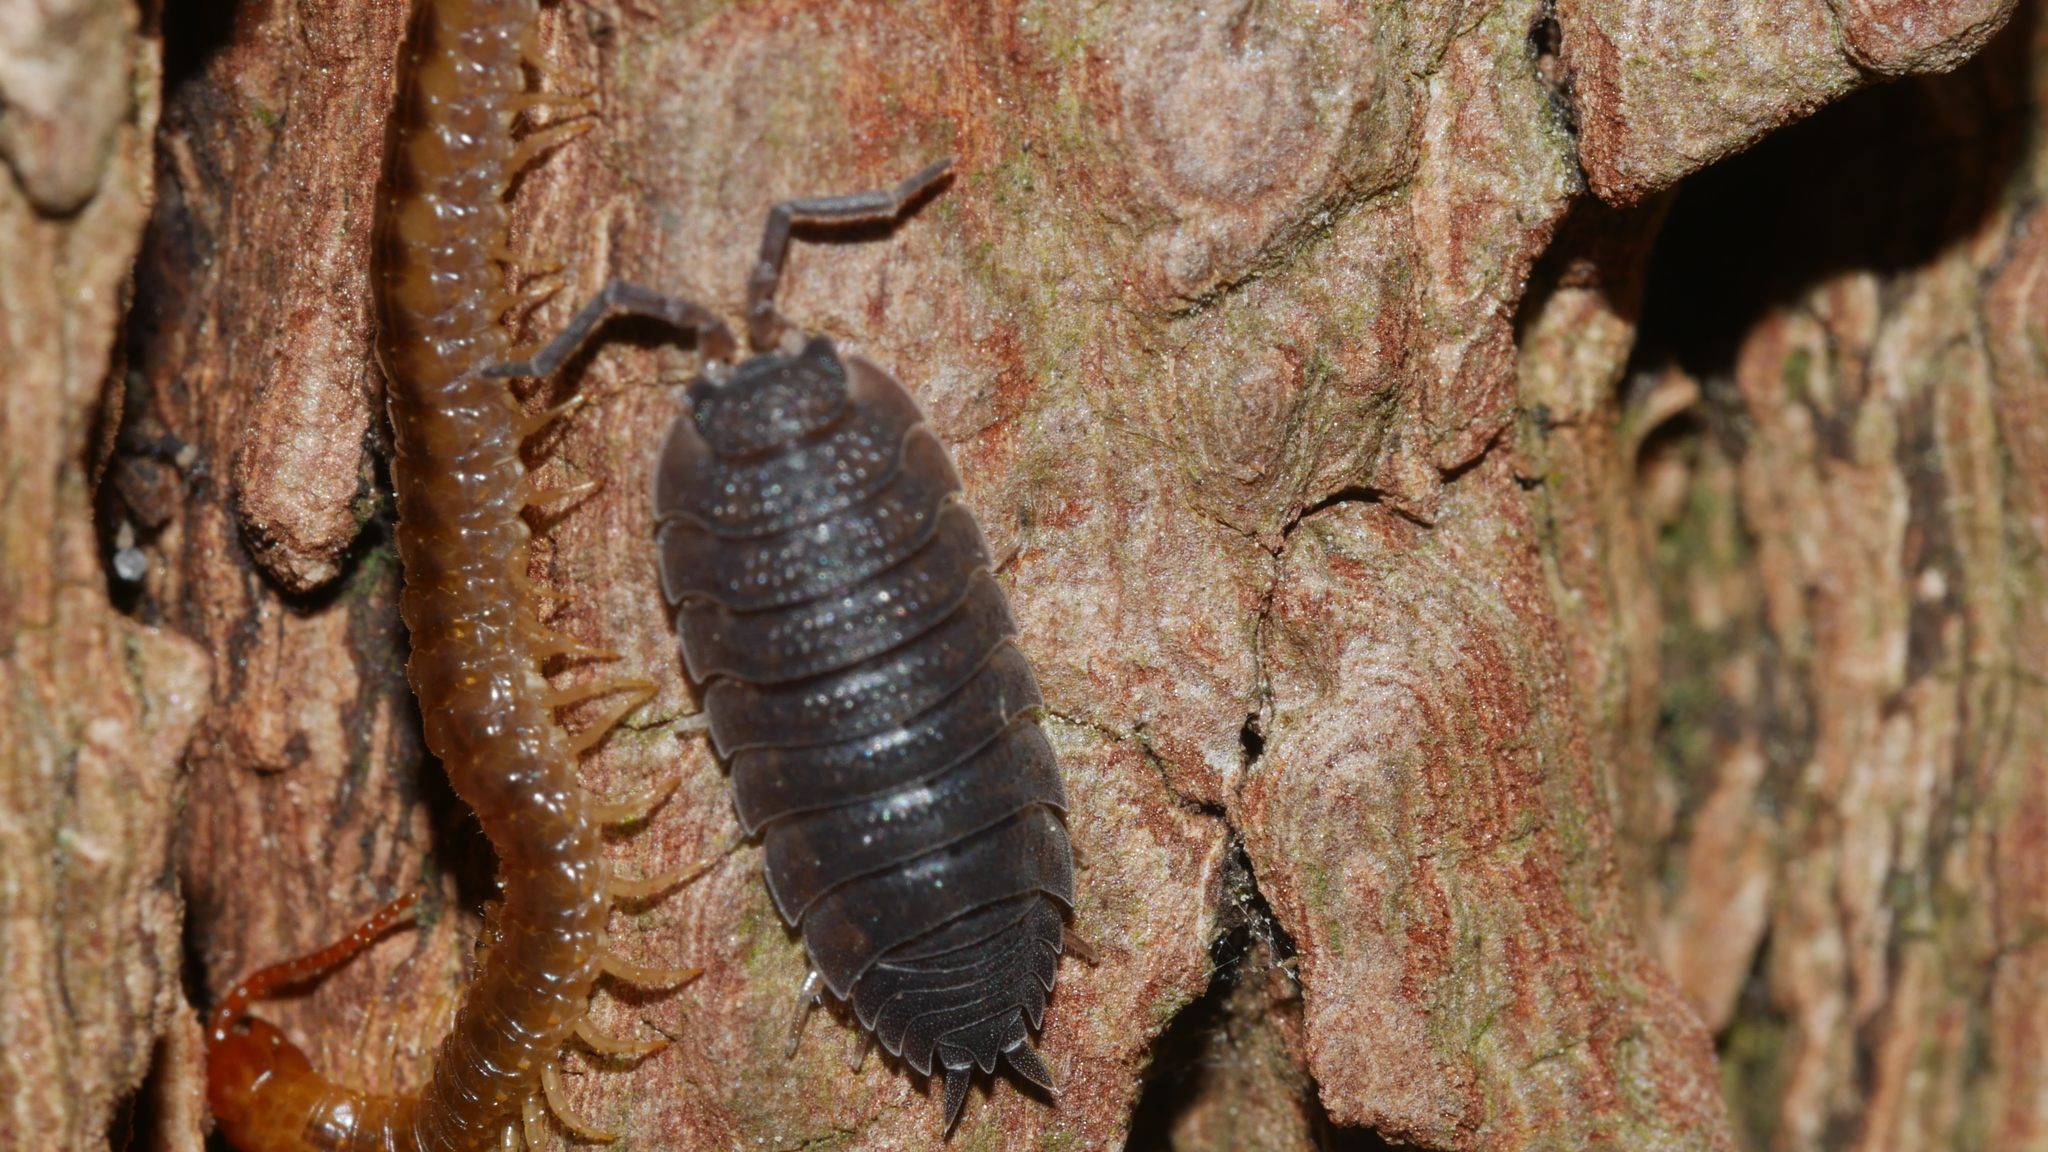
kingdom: Animalia
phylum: Arthropoda
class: Malacostraca
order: Isopoda
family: Porcellionidae
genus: Porcellio
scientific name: Porcellio scaber
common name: Common rough woodlouse
